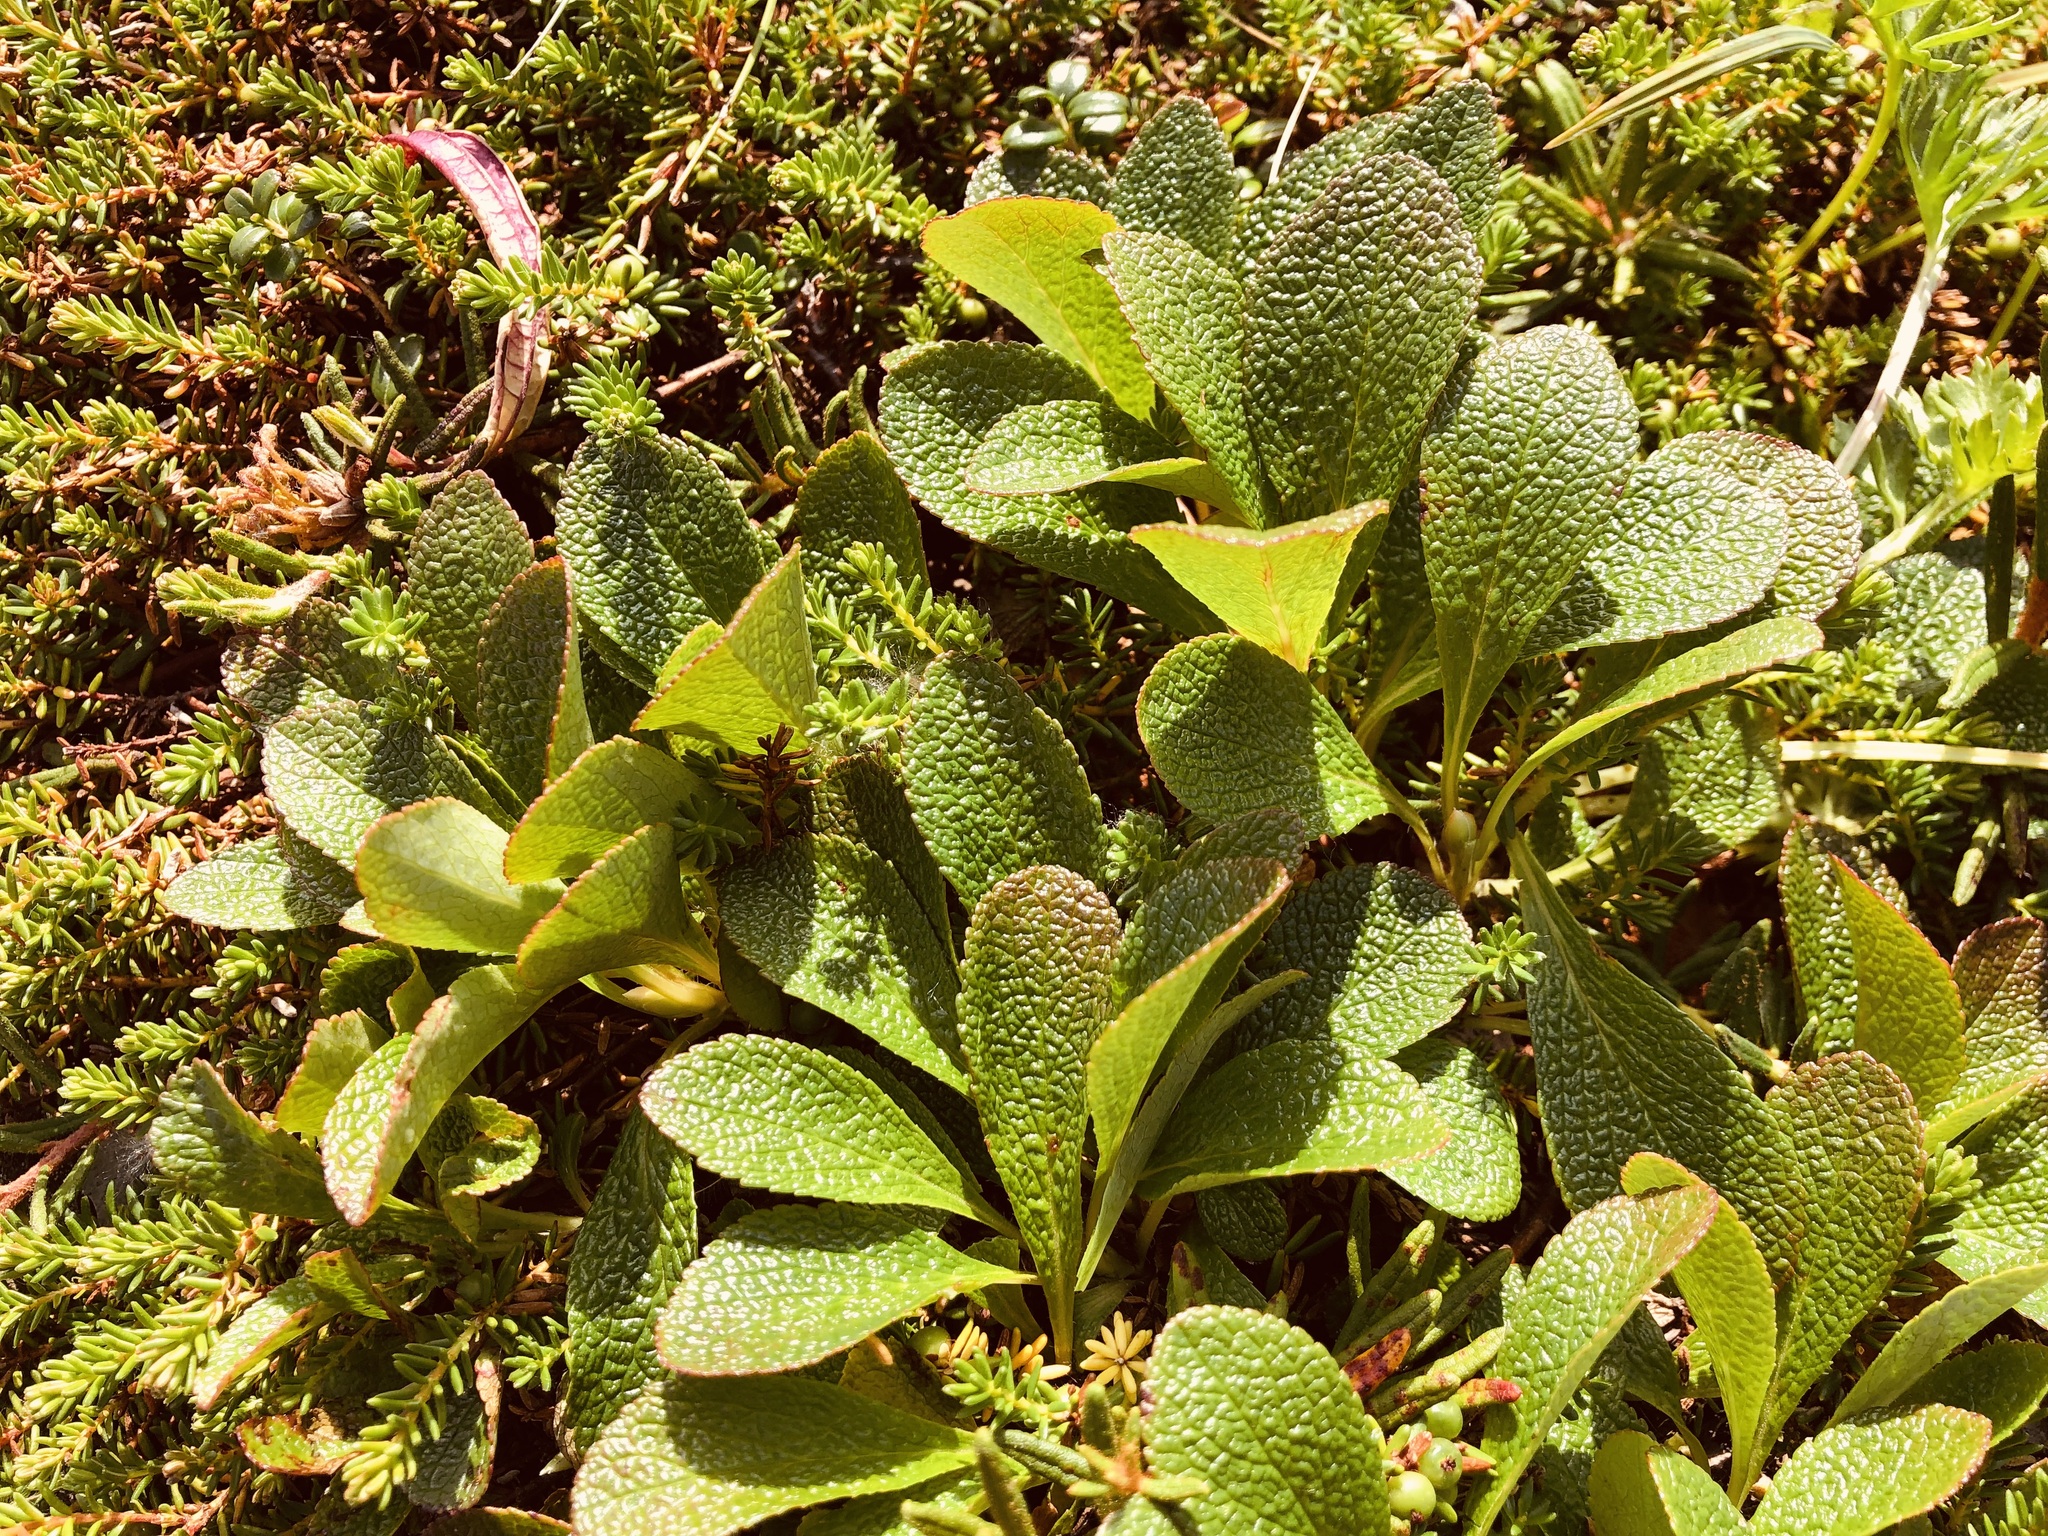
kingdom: Plantae
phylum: Tracheophyta
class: Magnoliopsida
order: Ericales
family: Ericaceae
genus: Arctostaphylos
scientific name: Arctostaphylos alpinus
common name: Alpine bearberry
